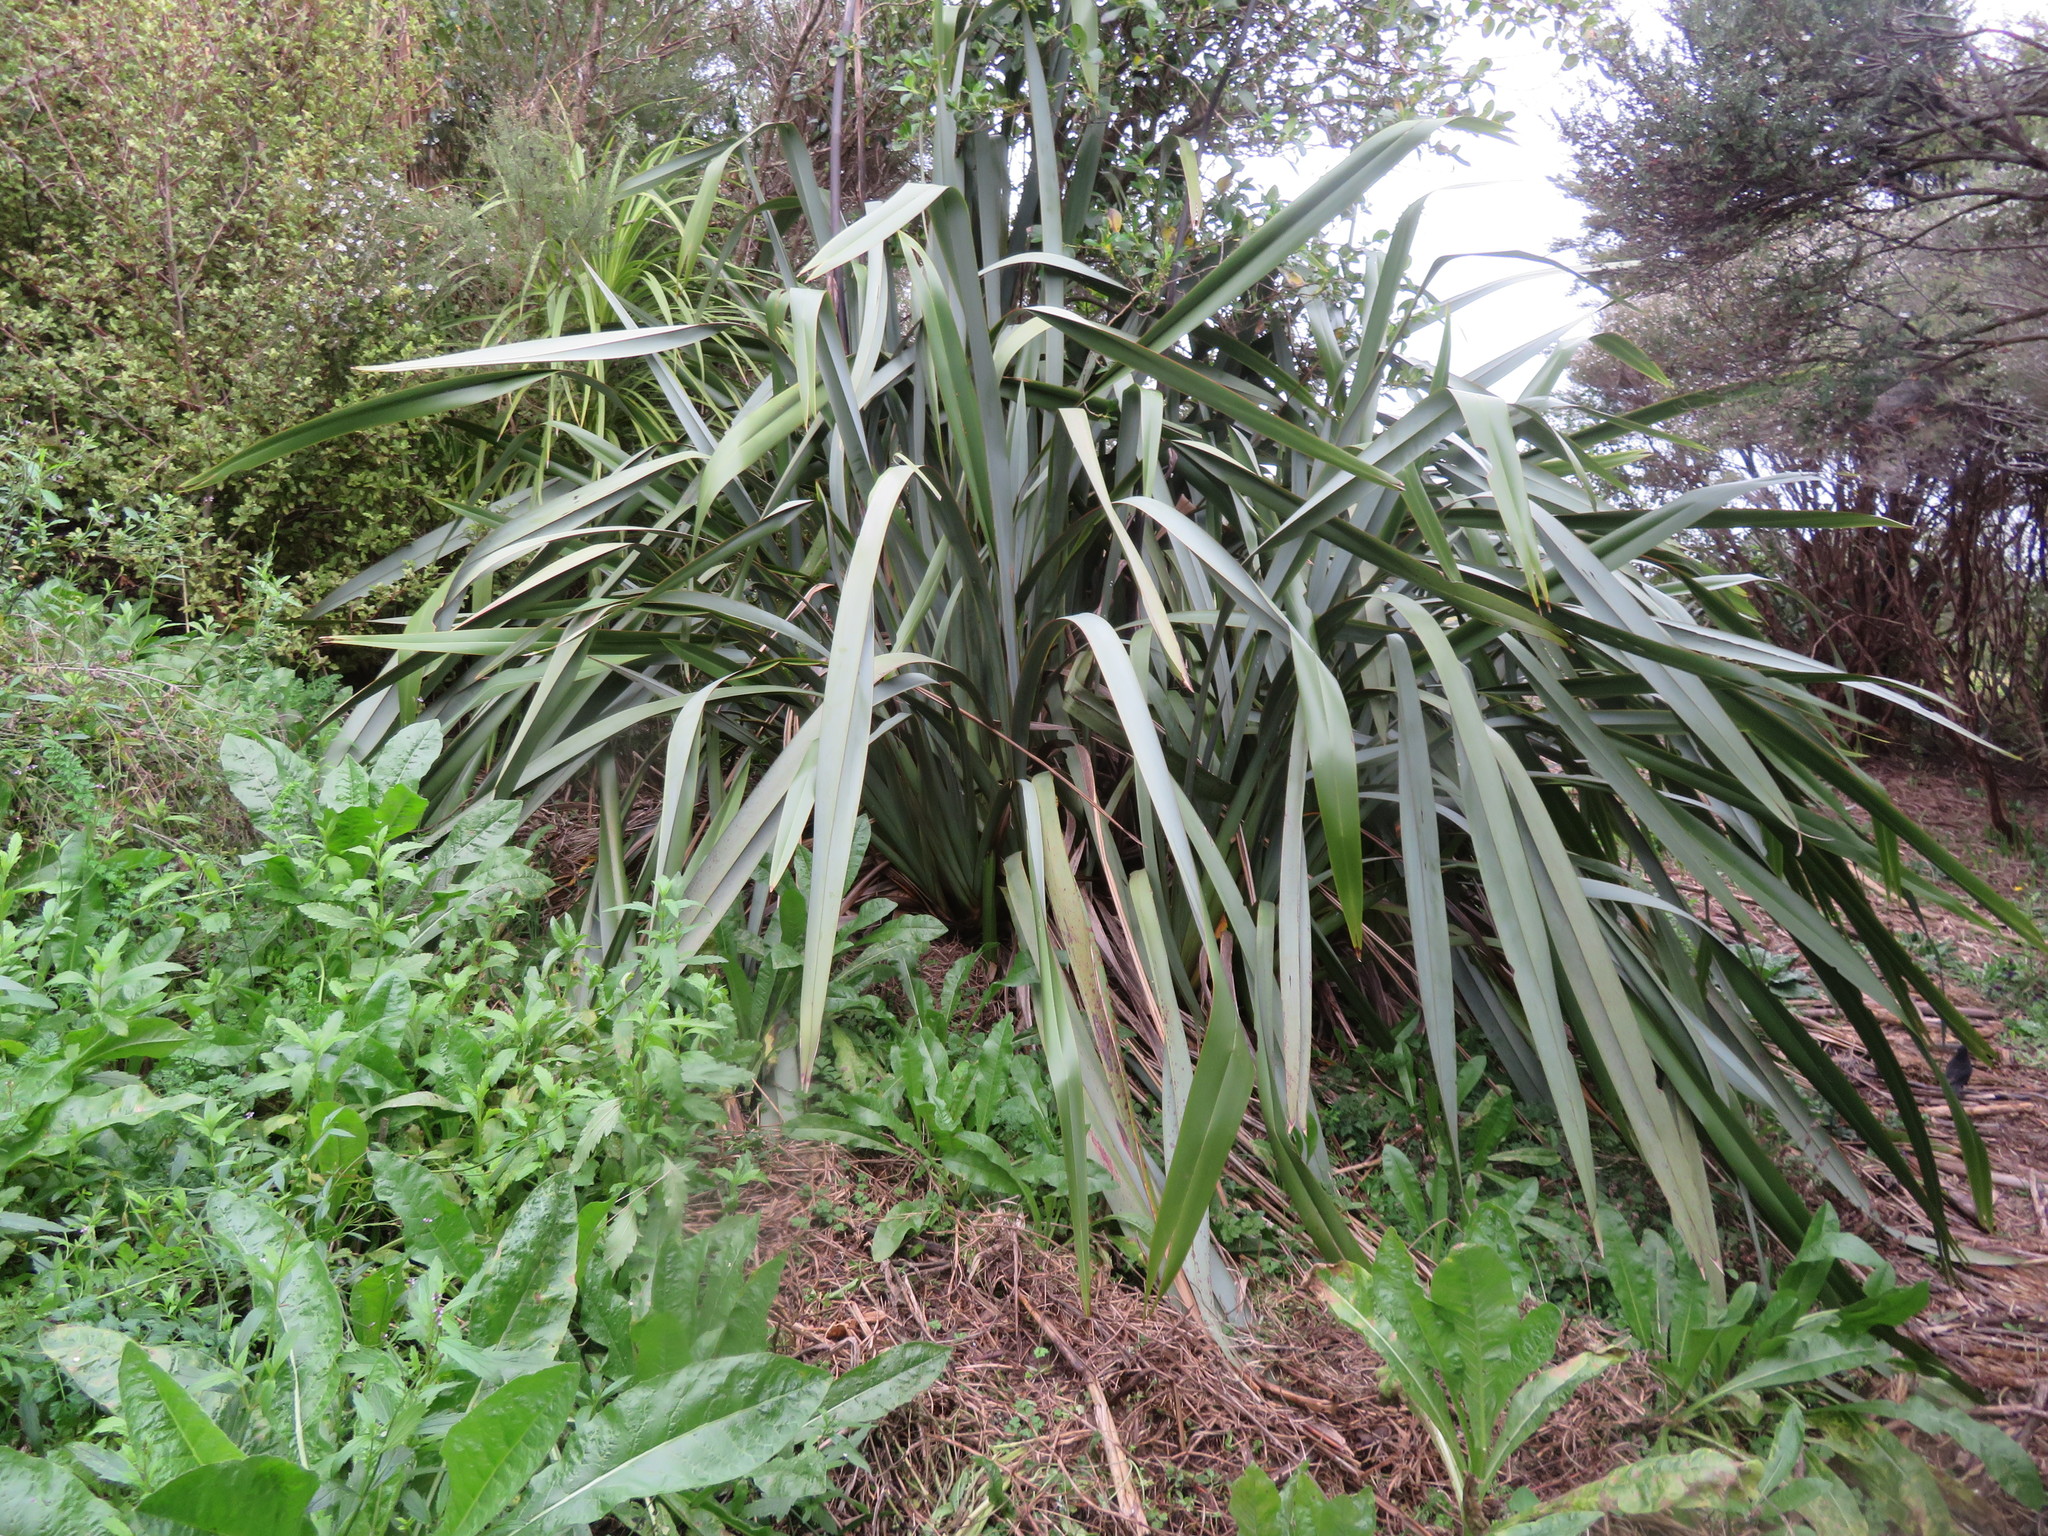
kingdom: Plantae
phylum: Tracheophyta
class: Magnoliopsida
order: Asterales
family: Asteraceae
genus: Helminthotheca
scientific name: Helminthotheca echioides
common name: Ox-tongue
